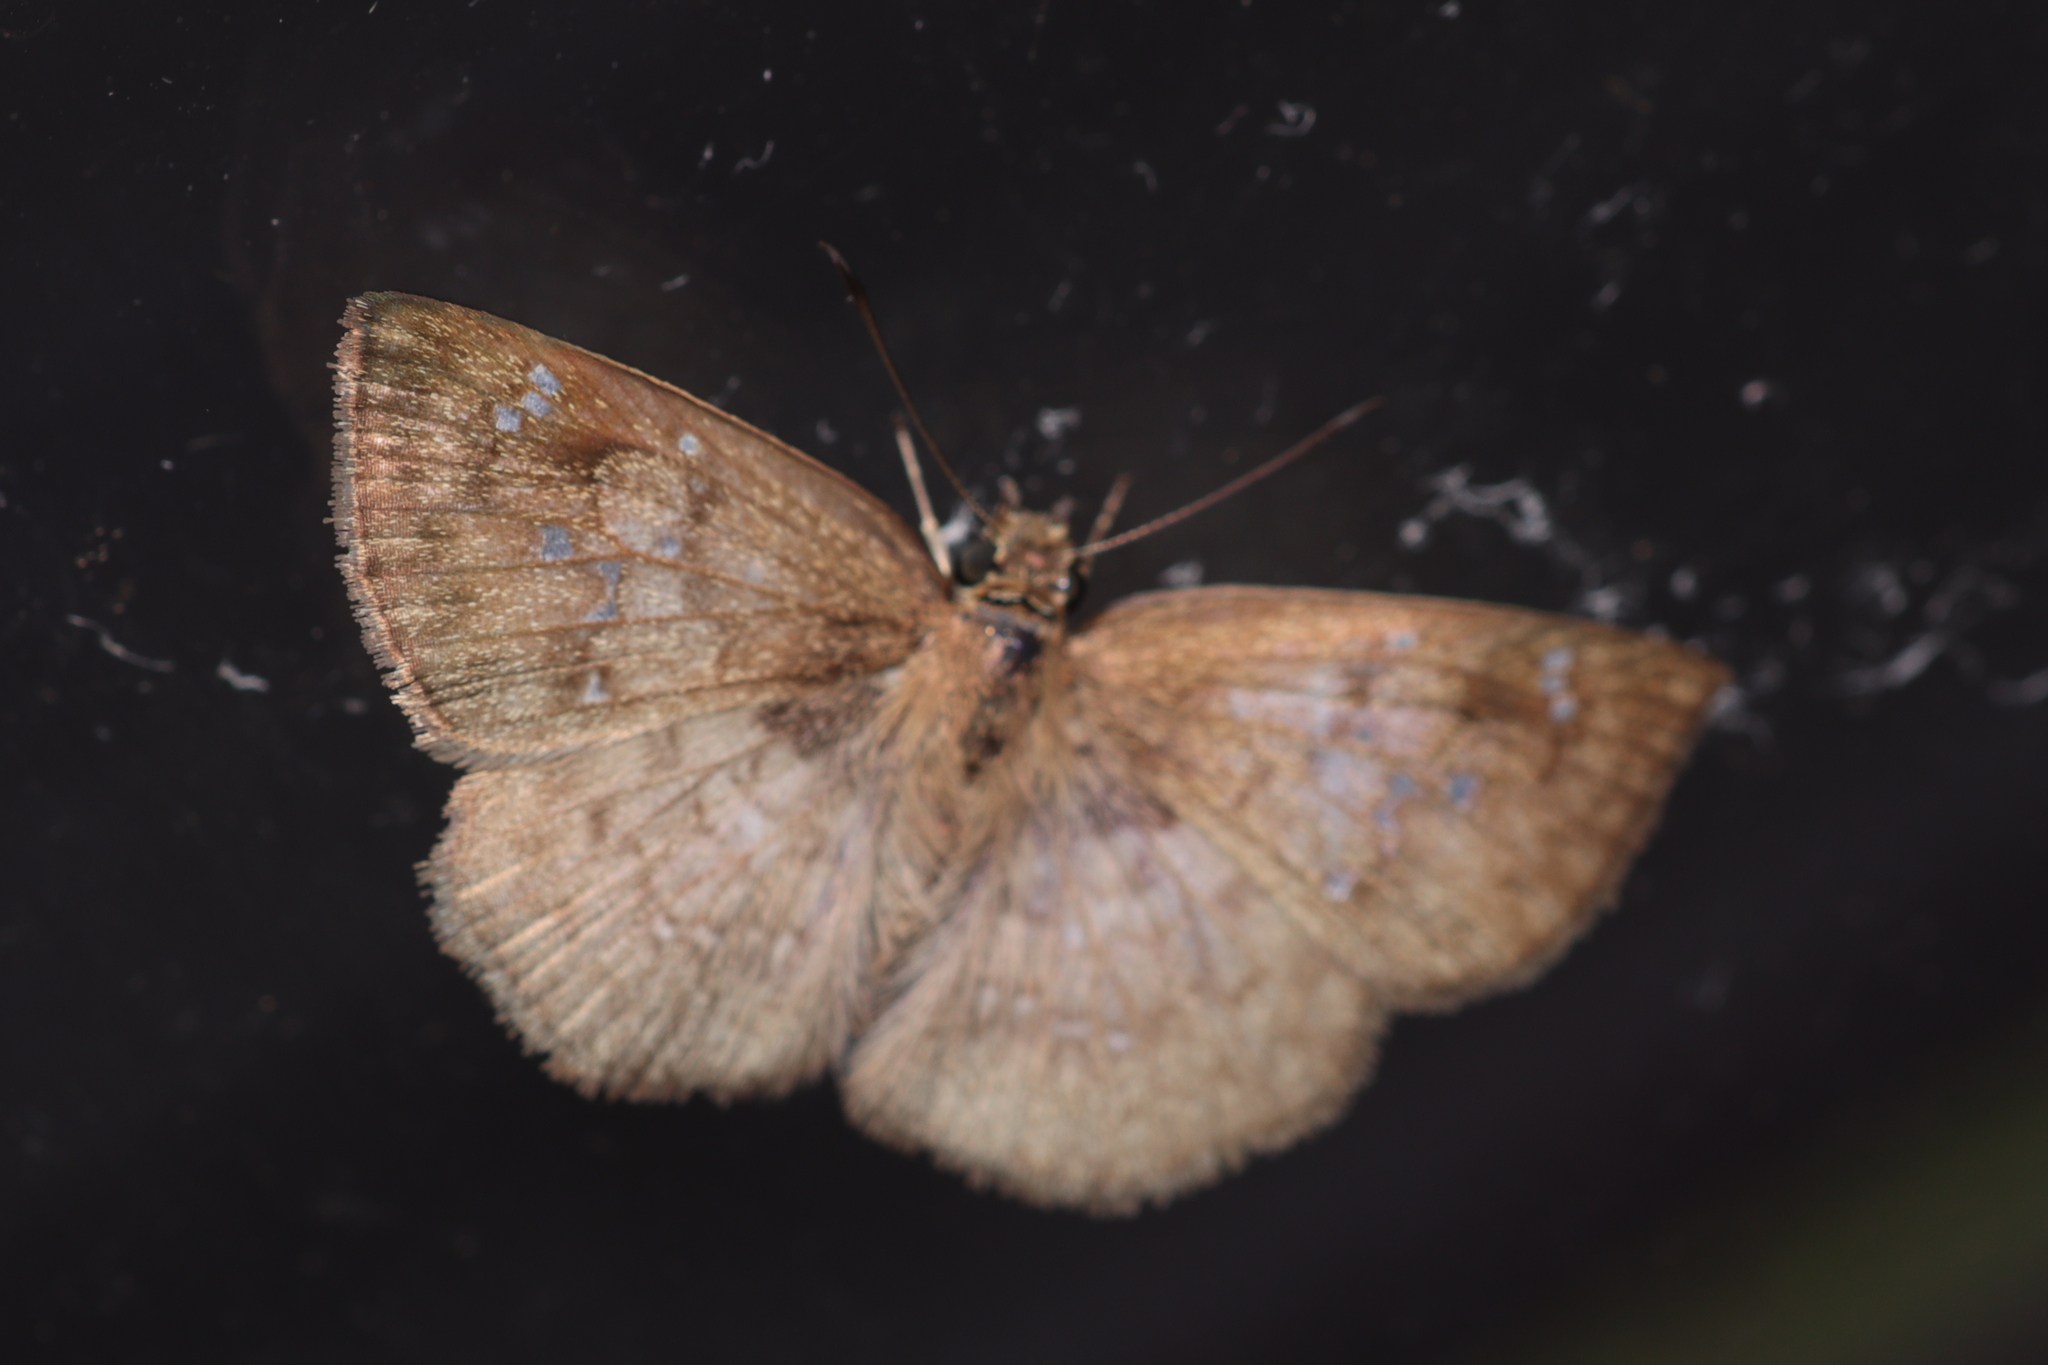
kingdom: Animalia
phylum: Arthropoda
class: Insecta
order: Lepidoptera
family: Hesperiidae
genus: Canesia
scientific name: Canesia
